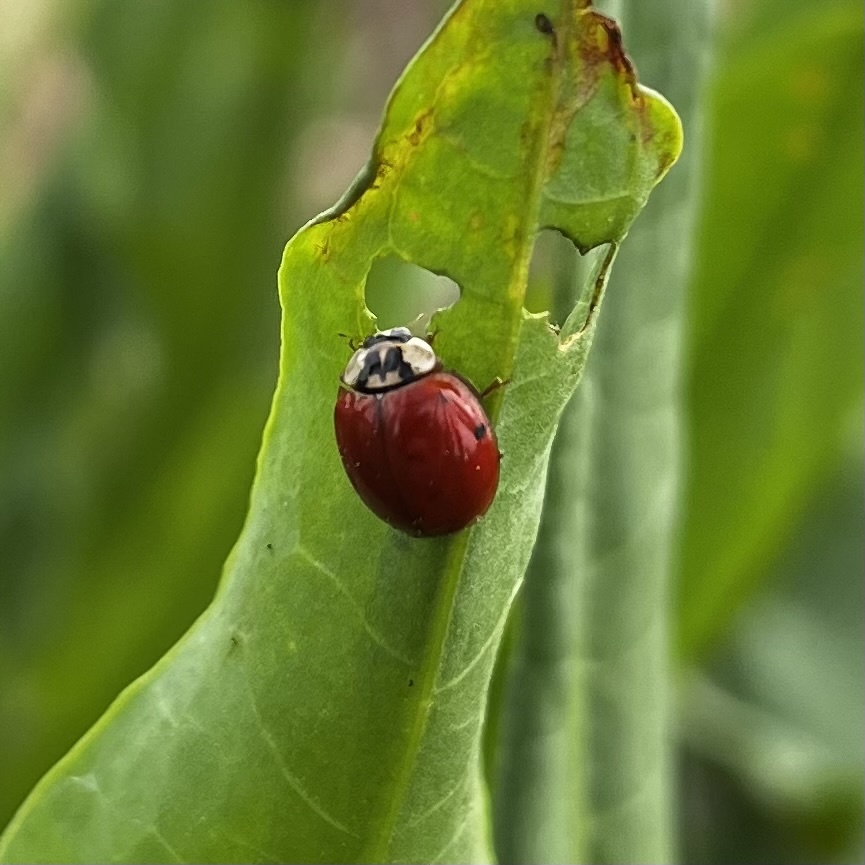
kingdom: Animalia
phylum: Arthropoda
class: Insecta
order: Coleoptera
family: Coccinellidae
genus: Harmonia
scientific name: Harmonia axyridis
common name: Harlequin ladybird
